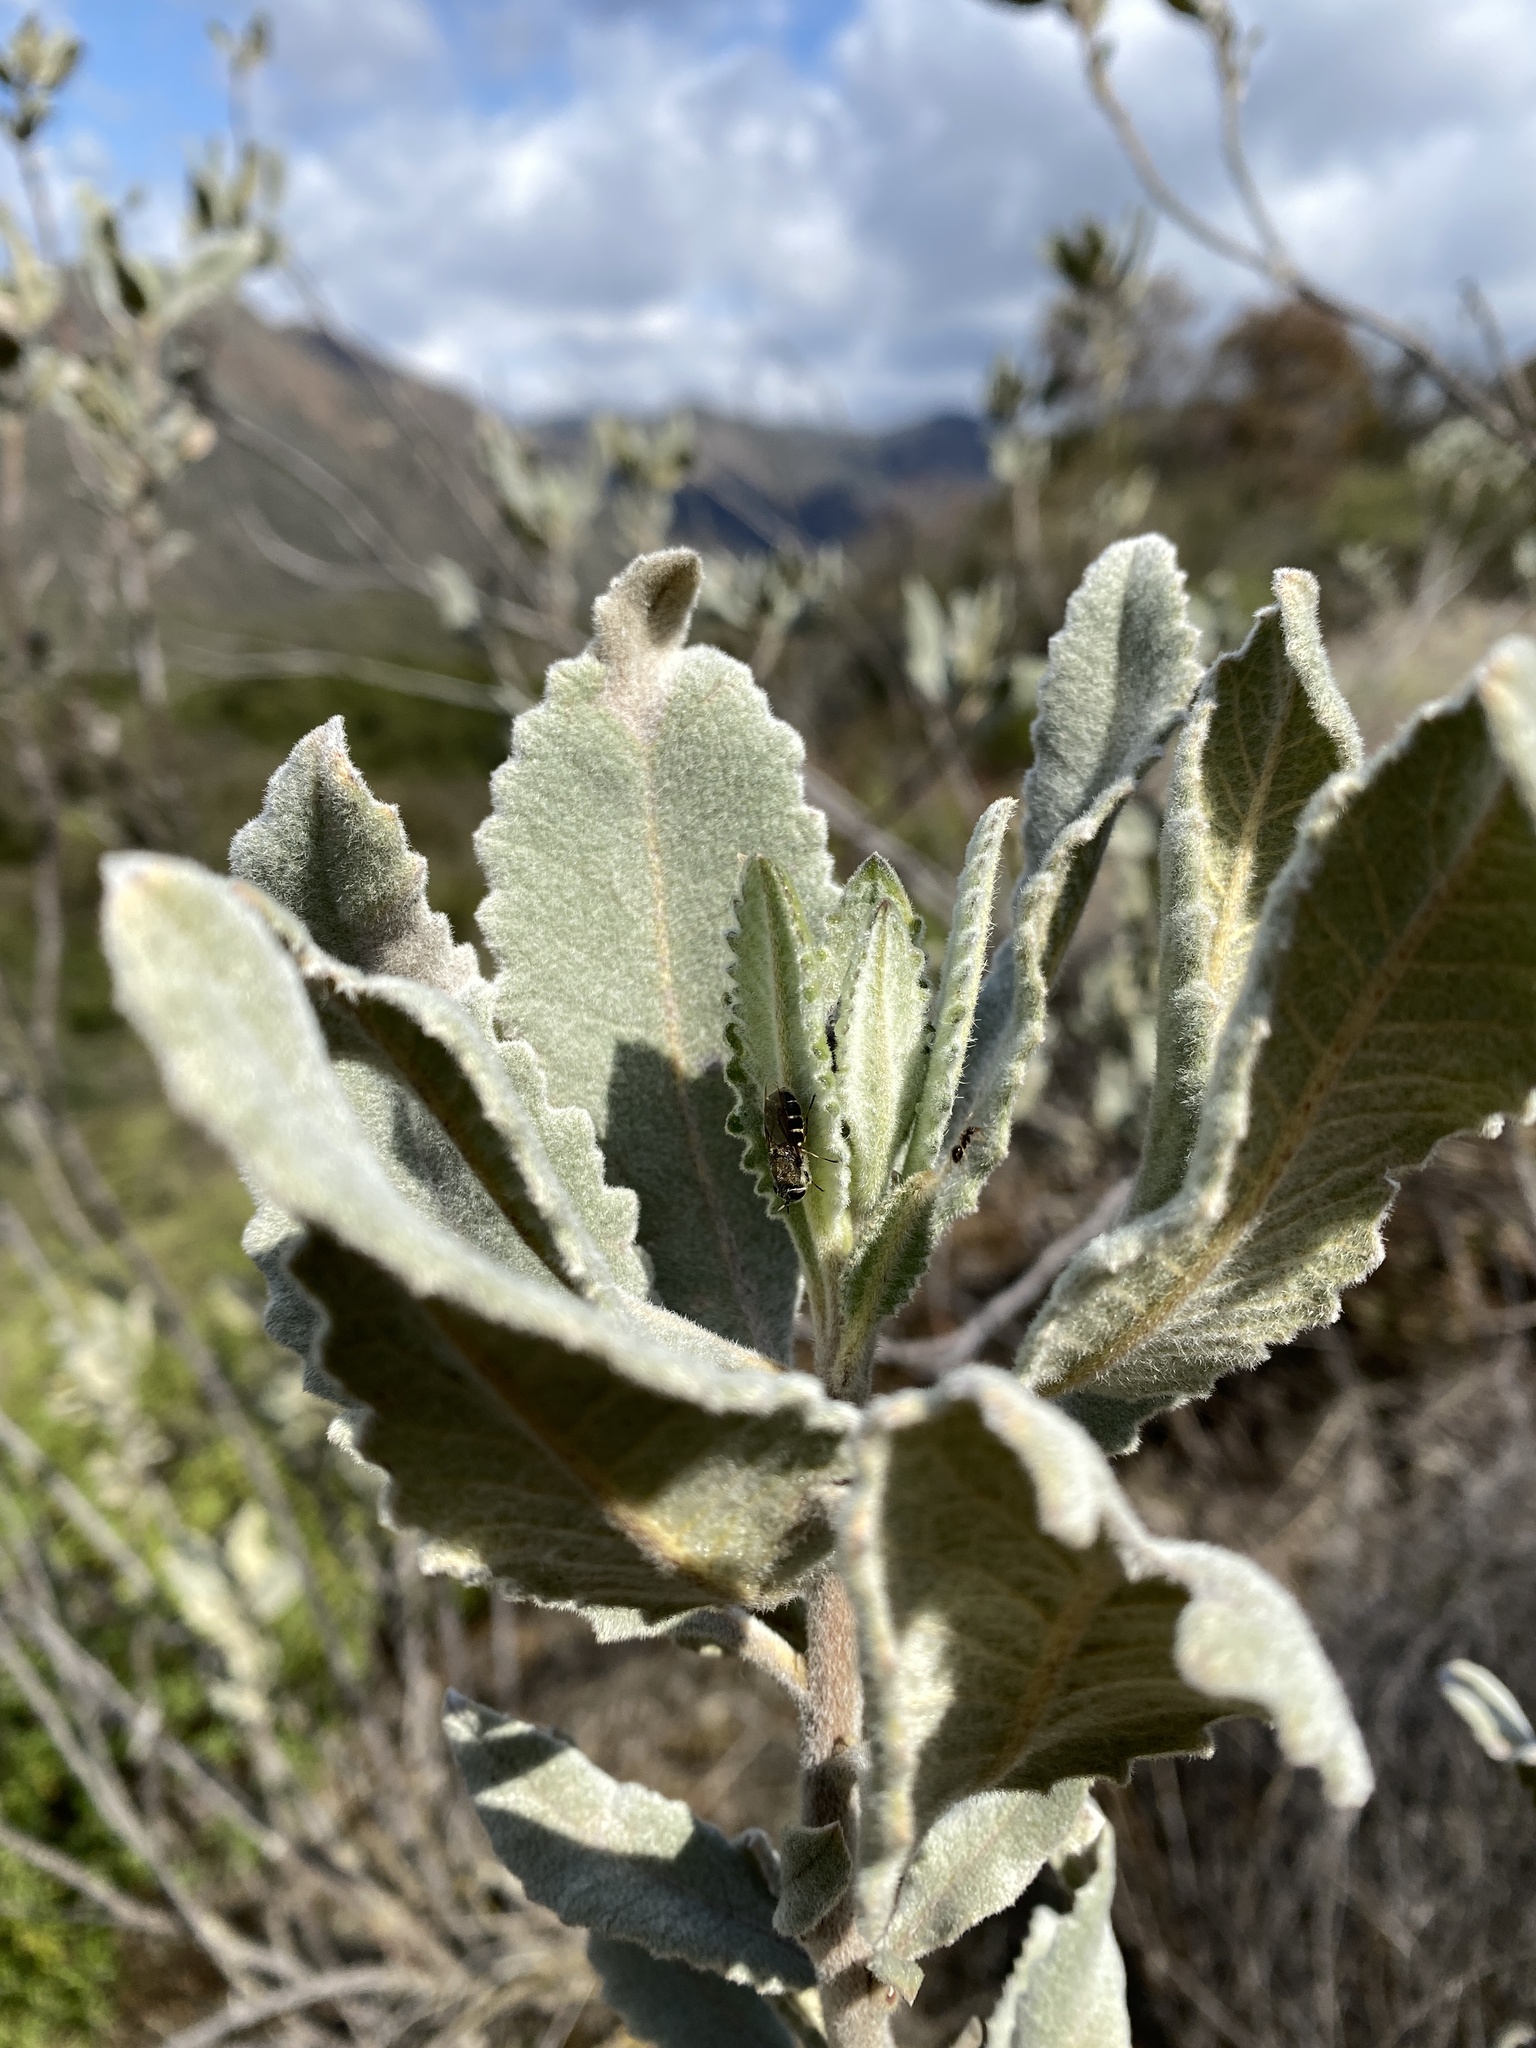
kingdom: Plantae
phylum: Tracheophyta
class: Magnoliopsida
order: Boraginales
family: Namaceae
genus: Eriodictyon
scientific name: Eriodictyon crassifolium
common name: Thick-leaf yerba-santa
